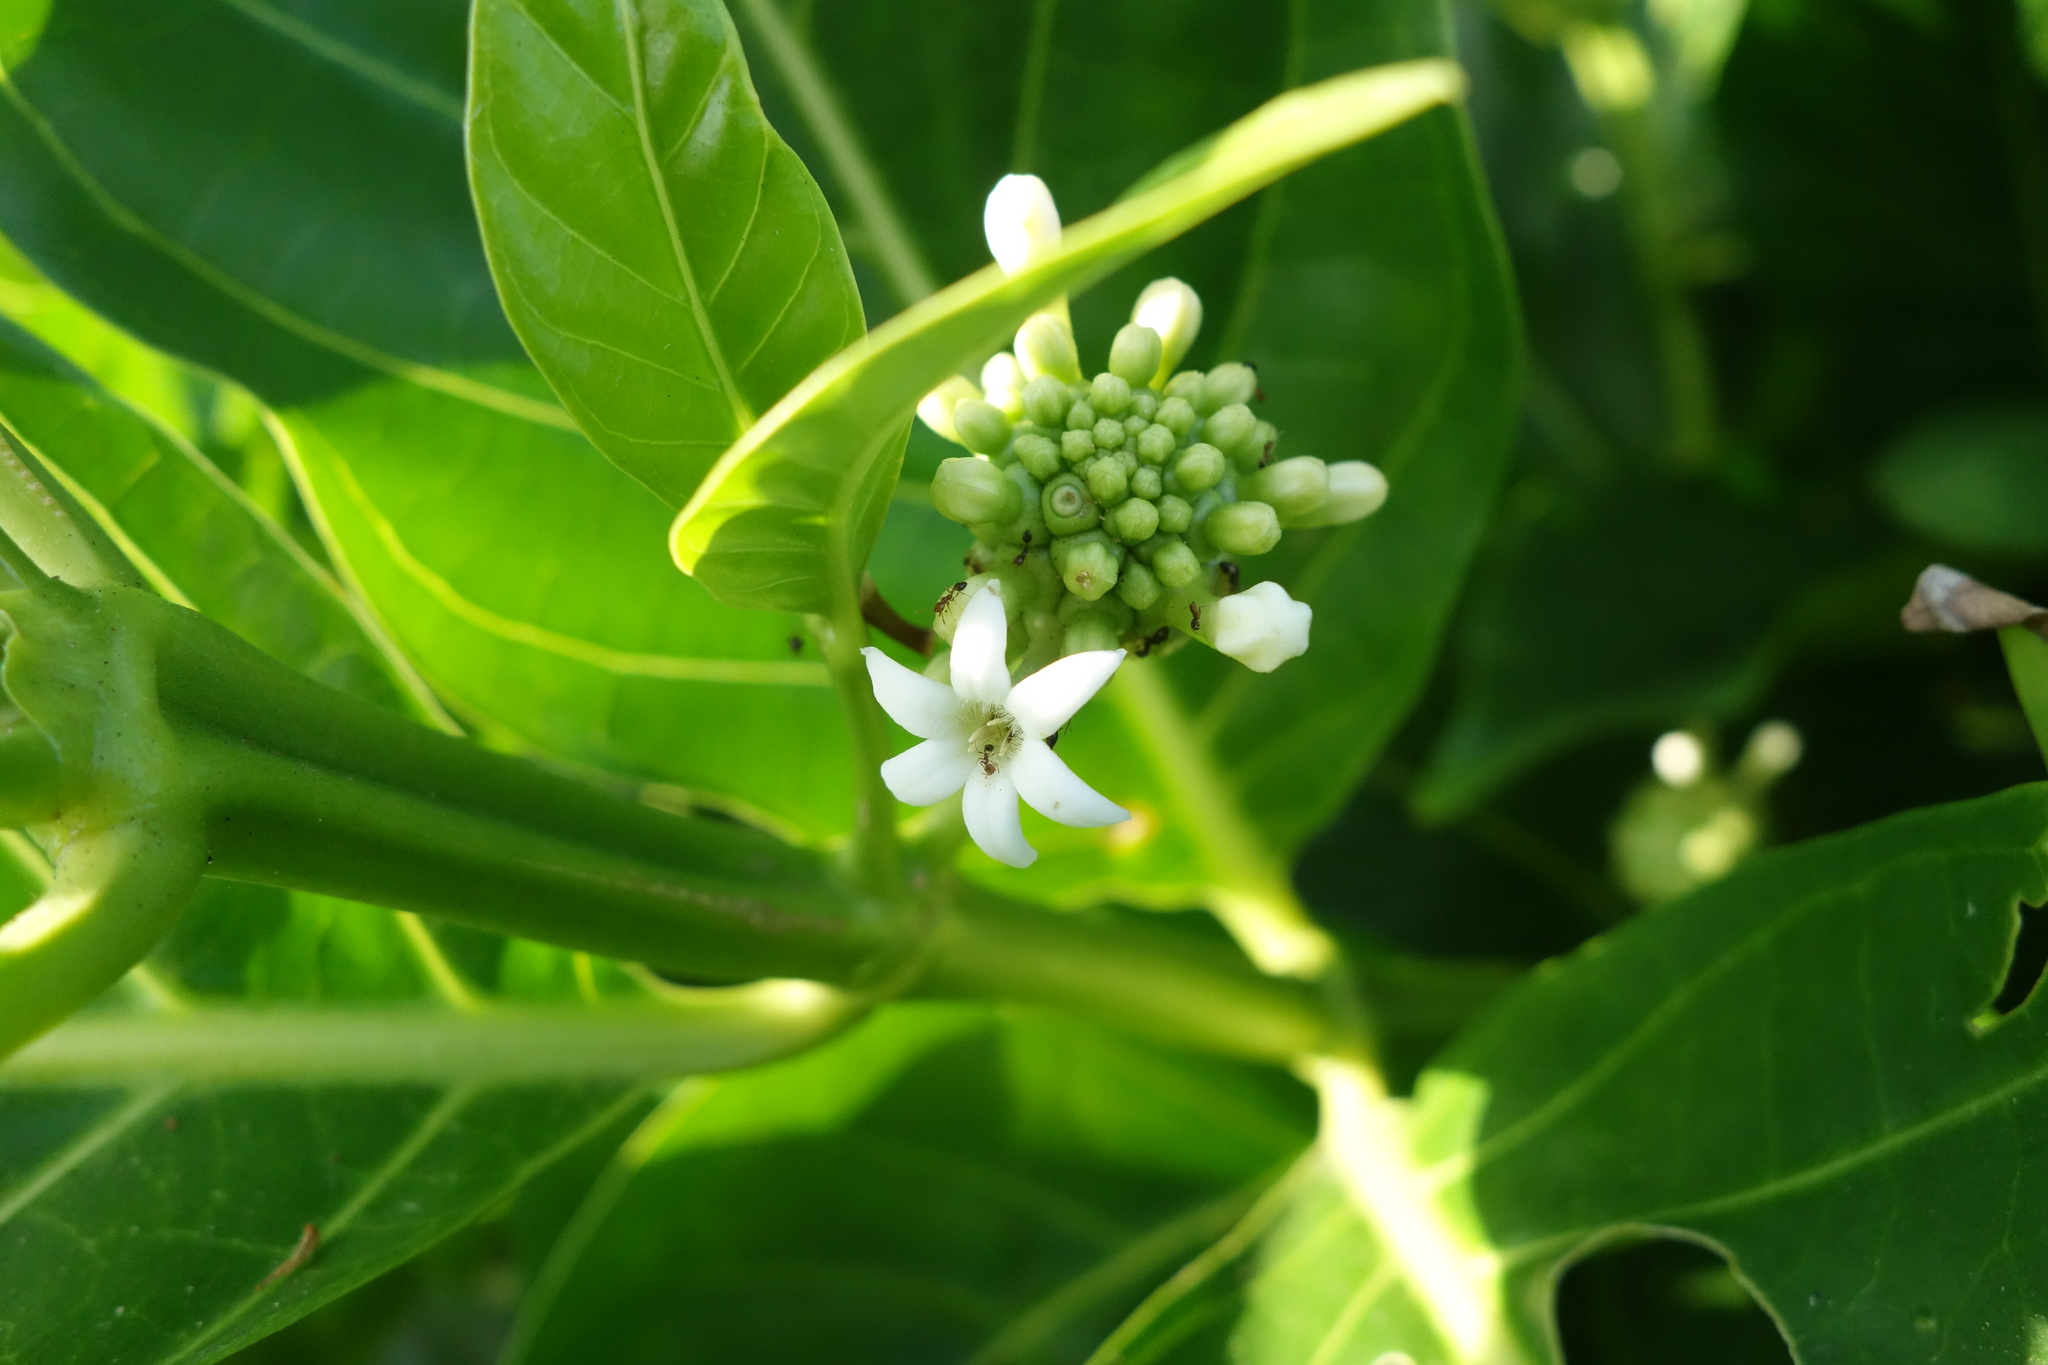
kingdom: Plantae
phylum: Tracheophyta
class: Magnoliopsida
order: Gentianales
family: Rubiaceae
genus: Morinda
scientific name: Morinda citrifolia
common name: Indian-mulberry
